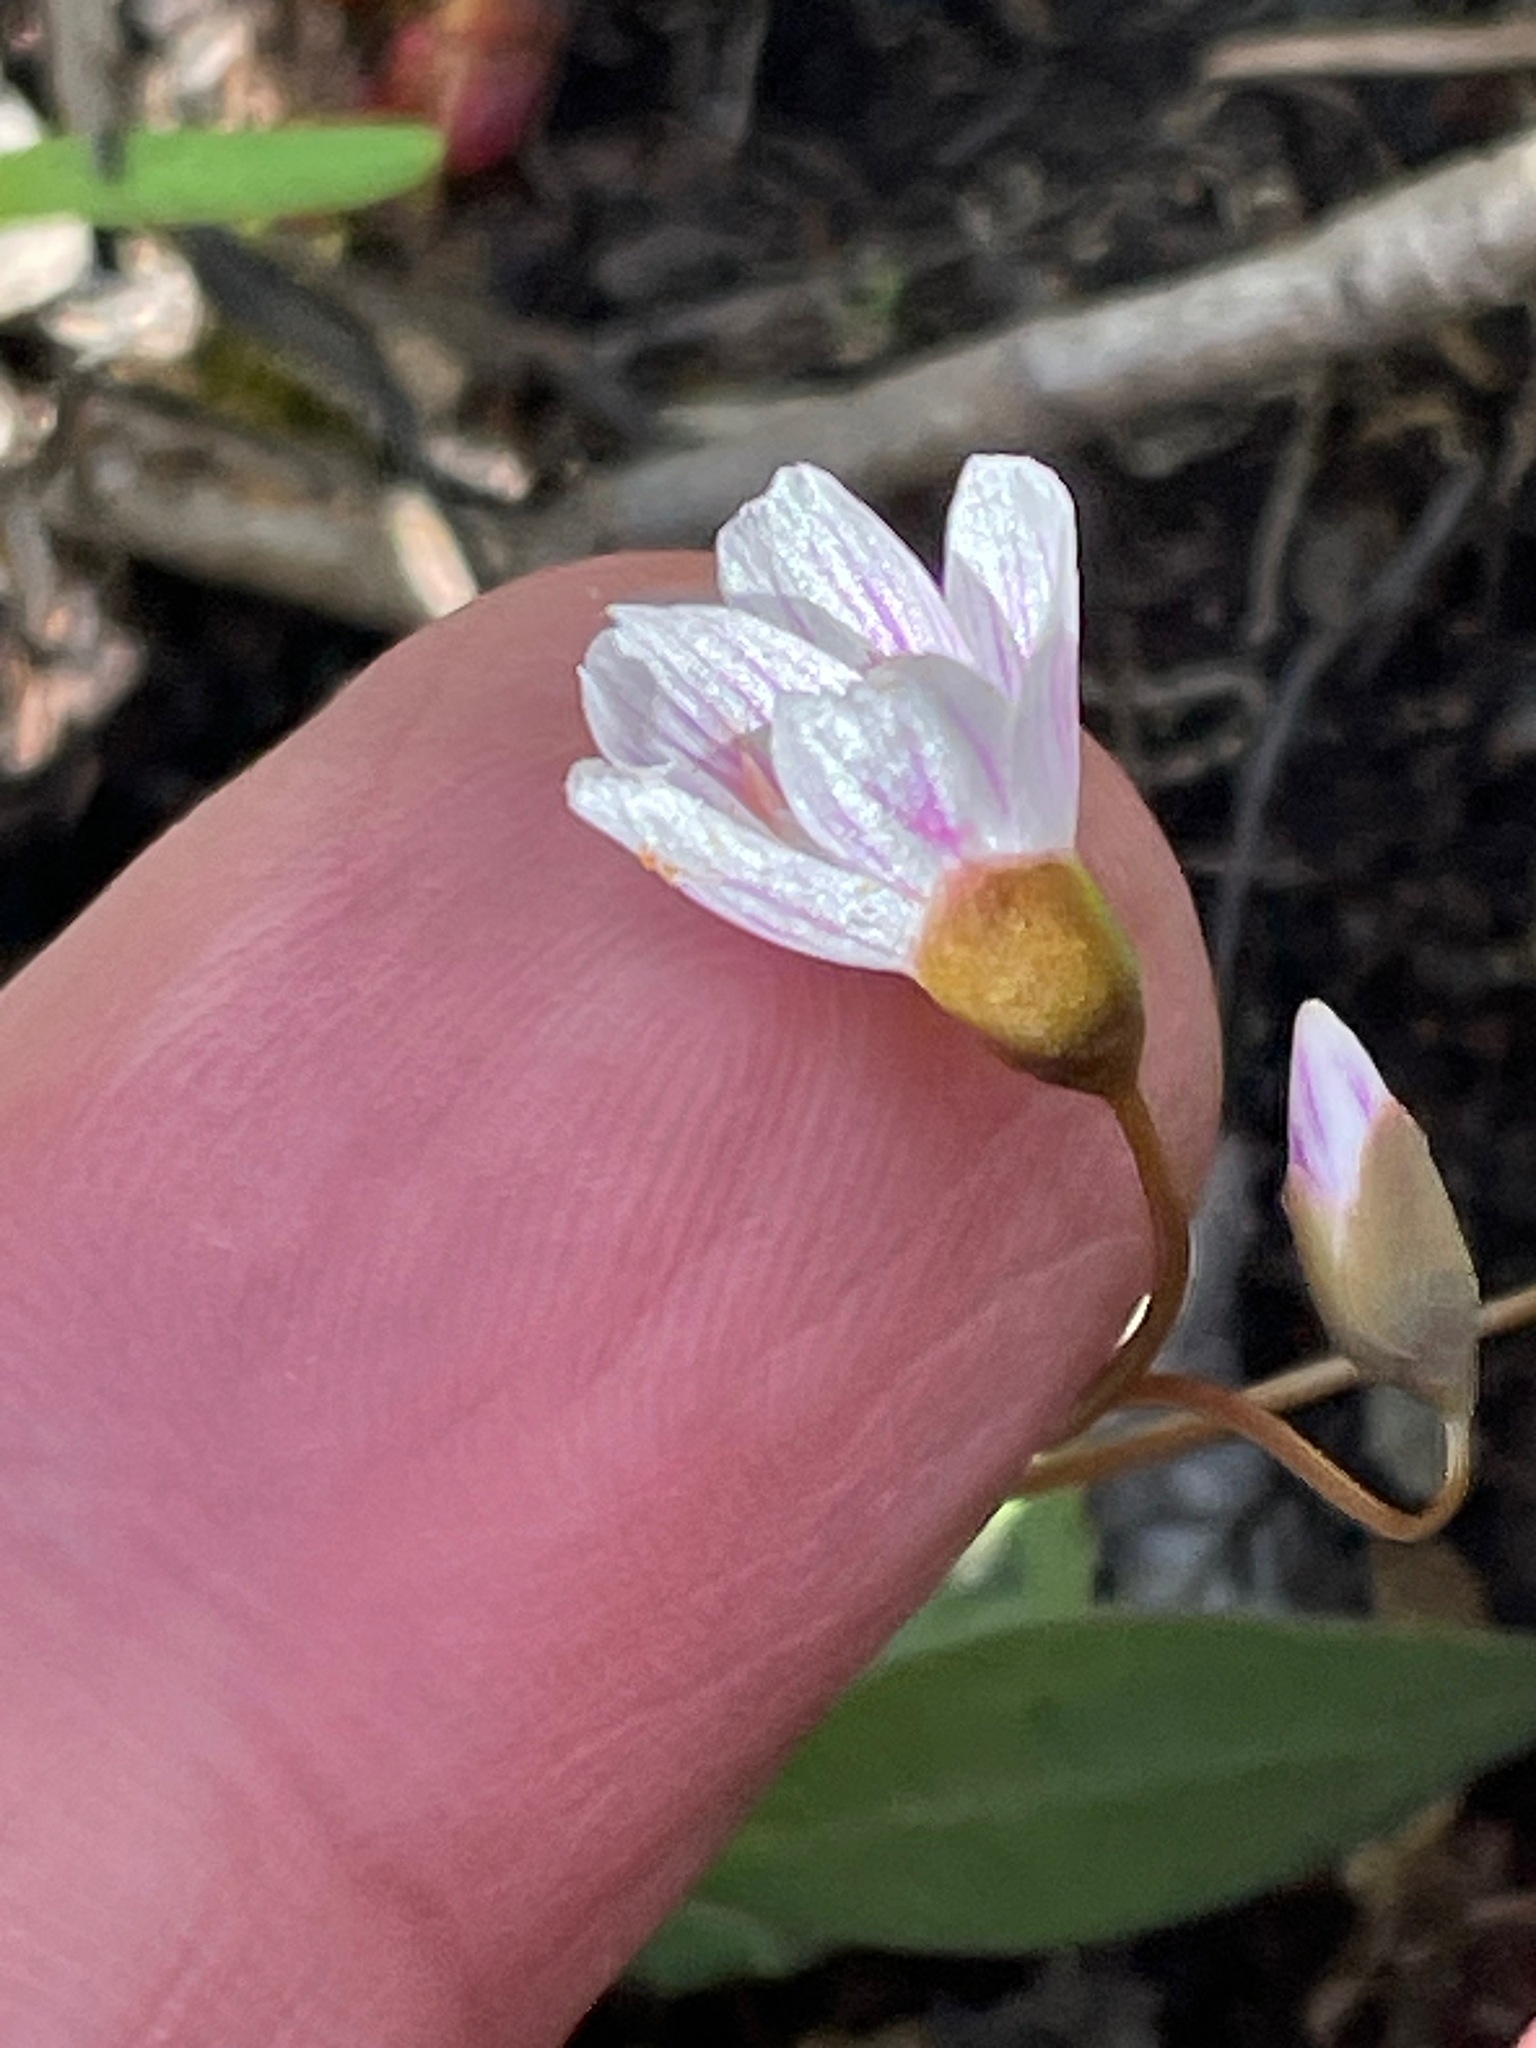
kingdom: Plantae
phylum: Tracheophyta
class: Magnoliopsida
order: Caryophyllales
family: Montiaceae
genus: Claytonia
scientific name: Claytonia caroliniana
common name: Carolina spring beauty
